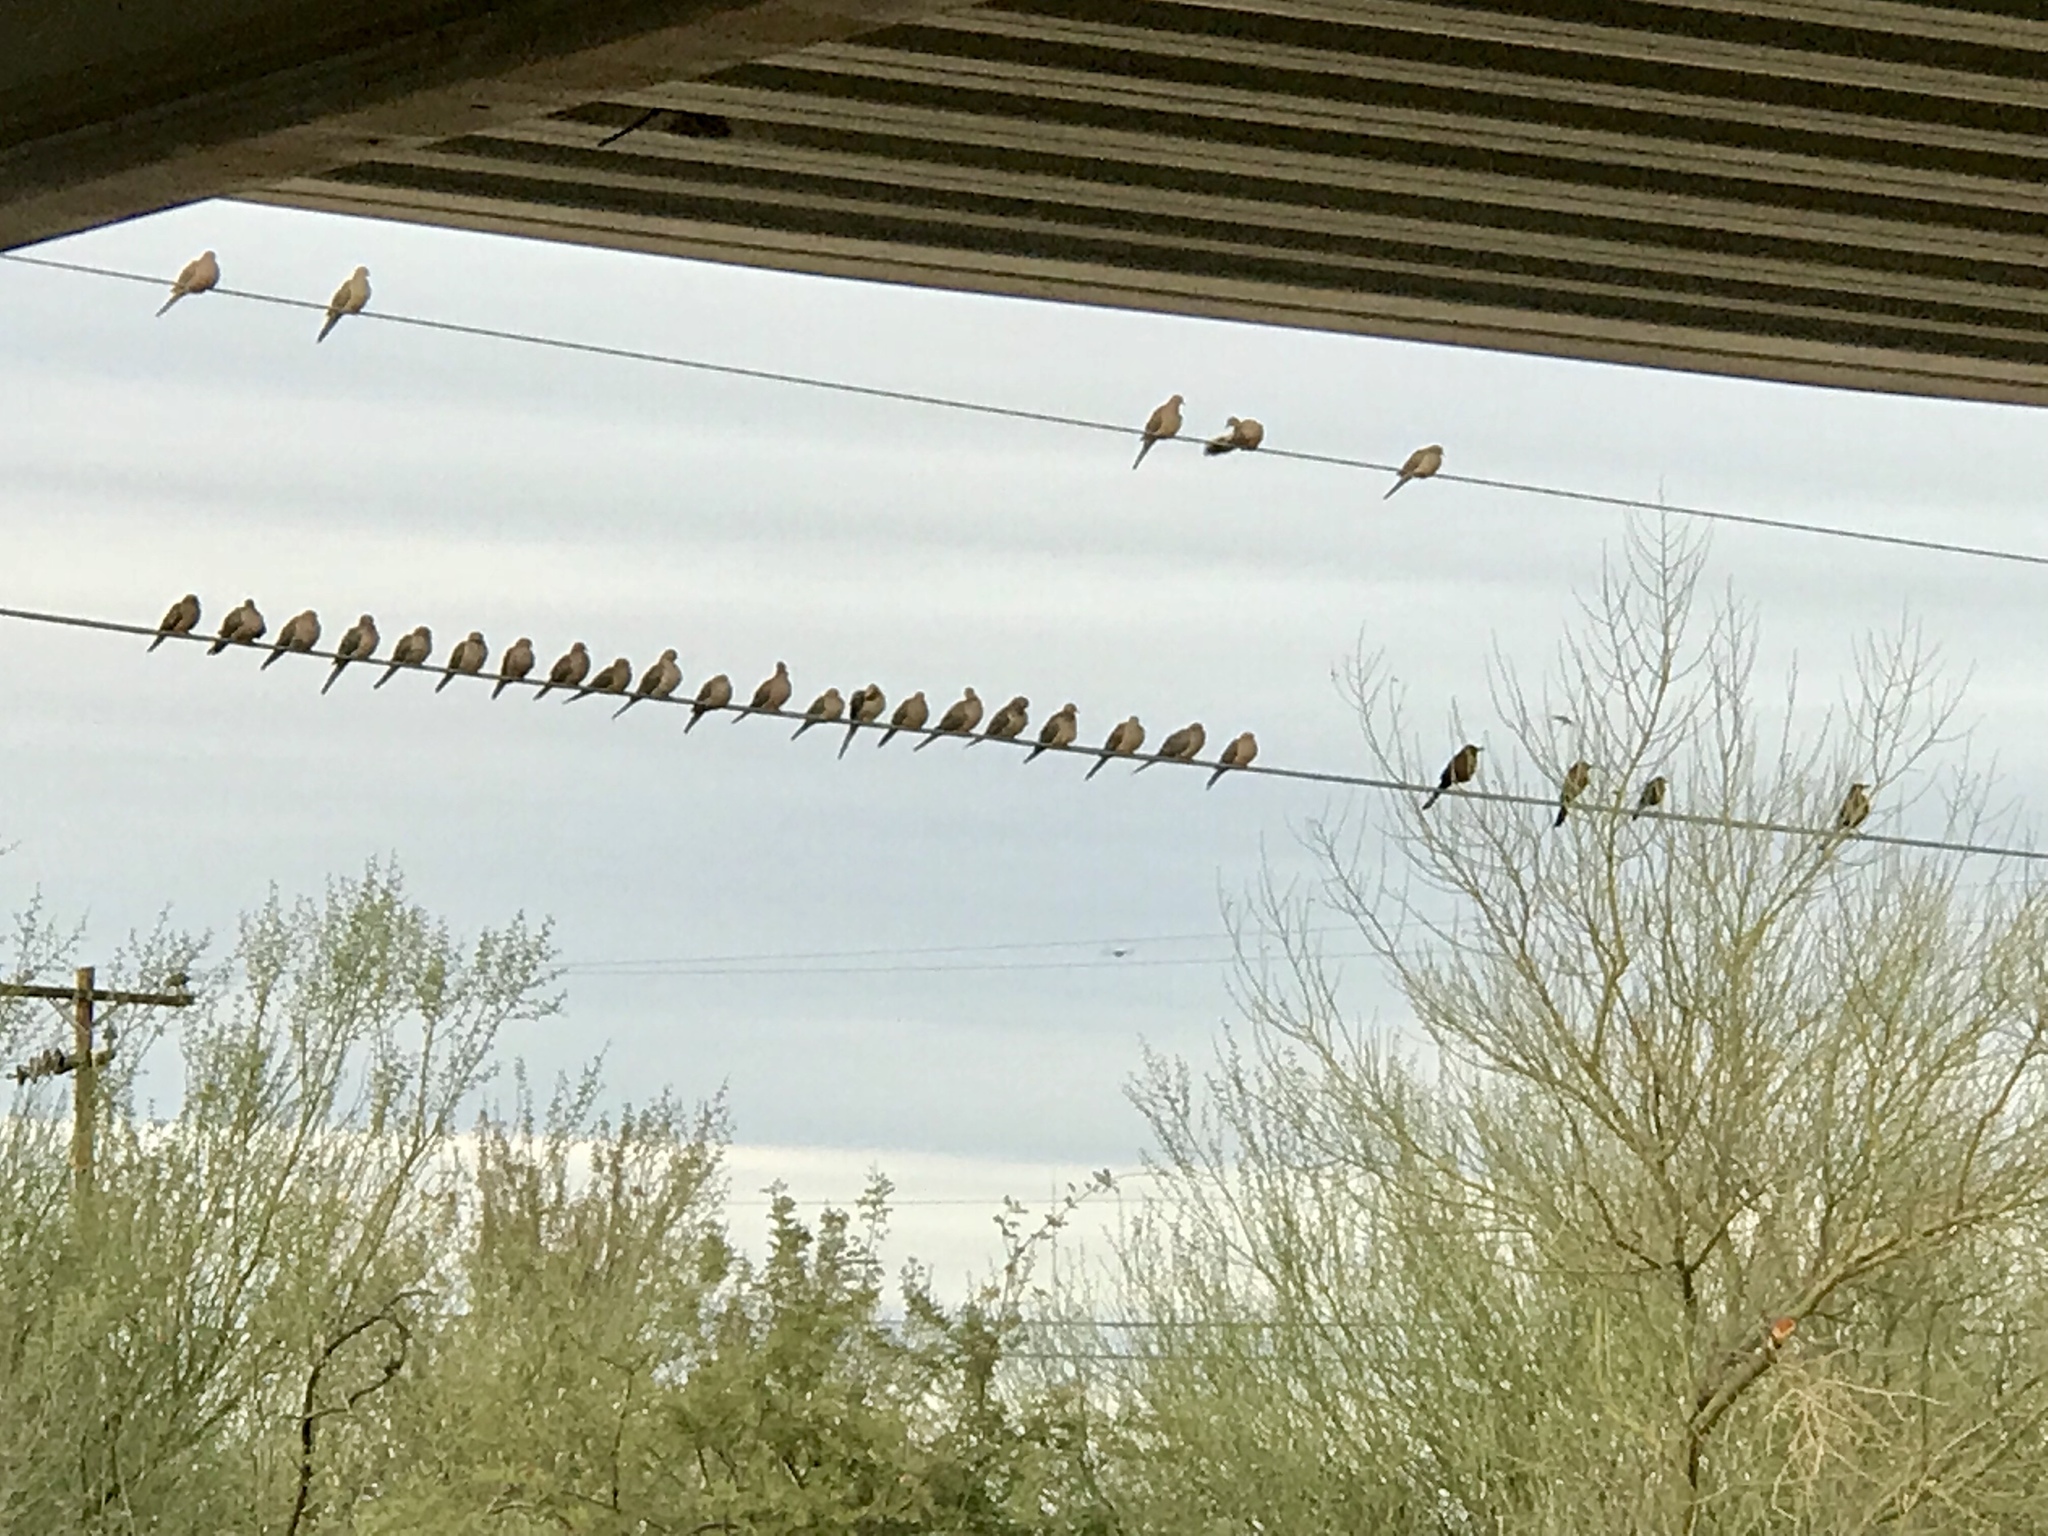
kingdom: Animalia
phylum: Chordata
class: Aves
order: Columbiformes
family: Columbidae
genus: Zenaida
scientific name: Zenaida macroura
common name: Mourning dove
